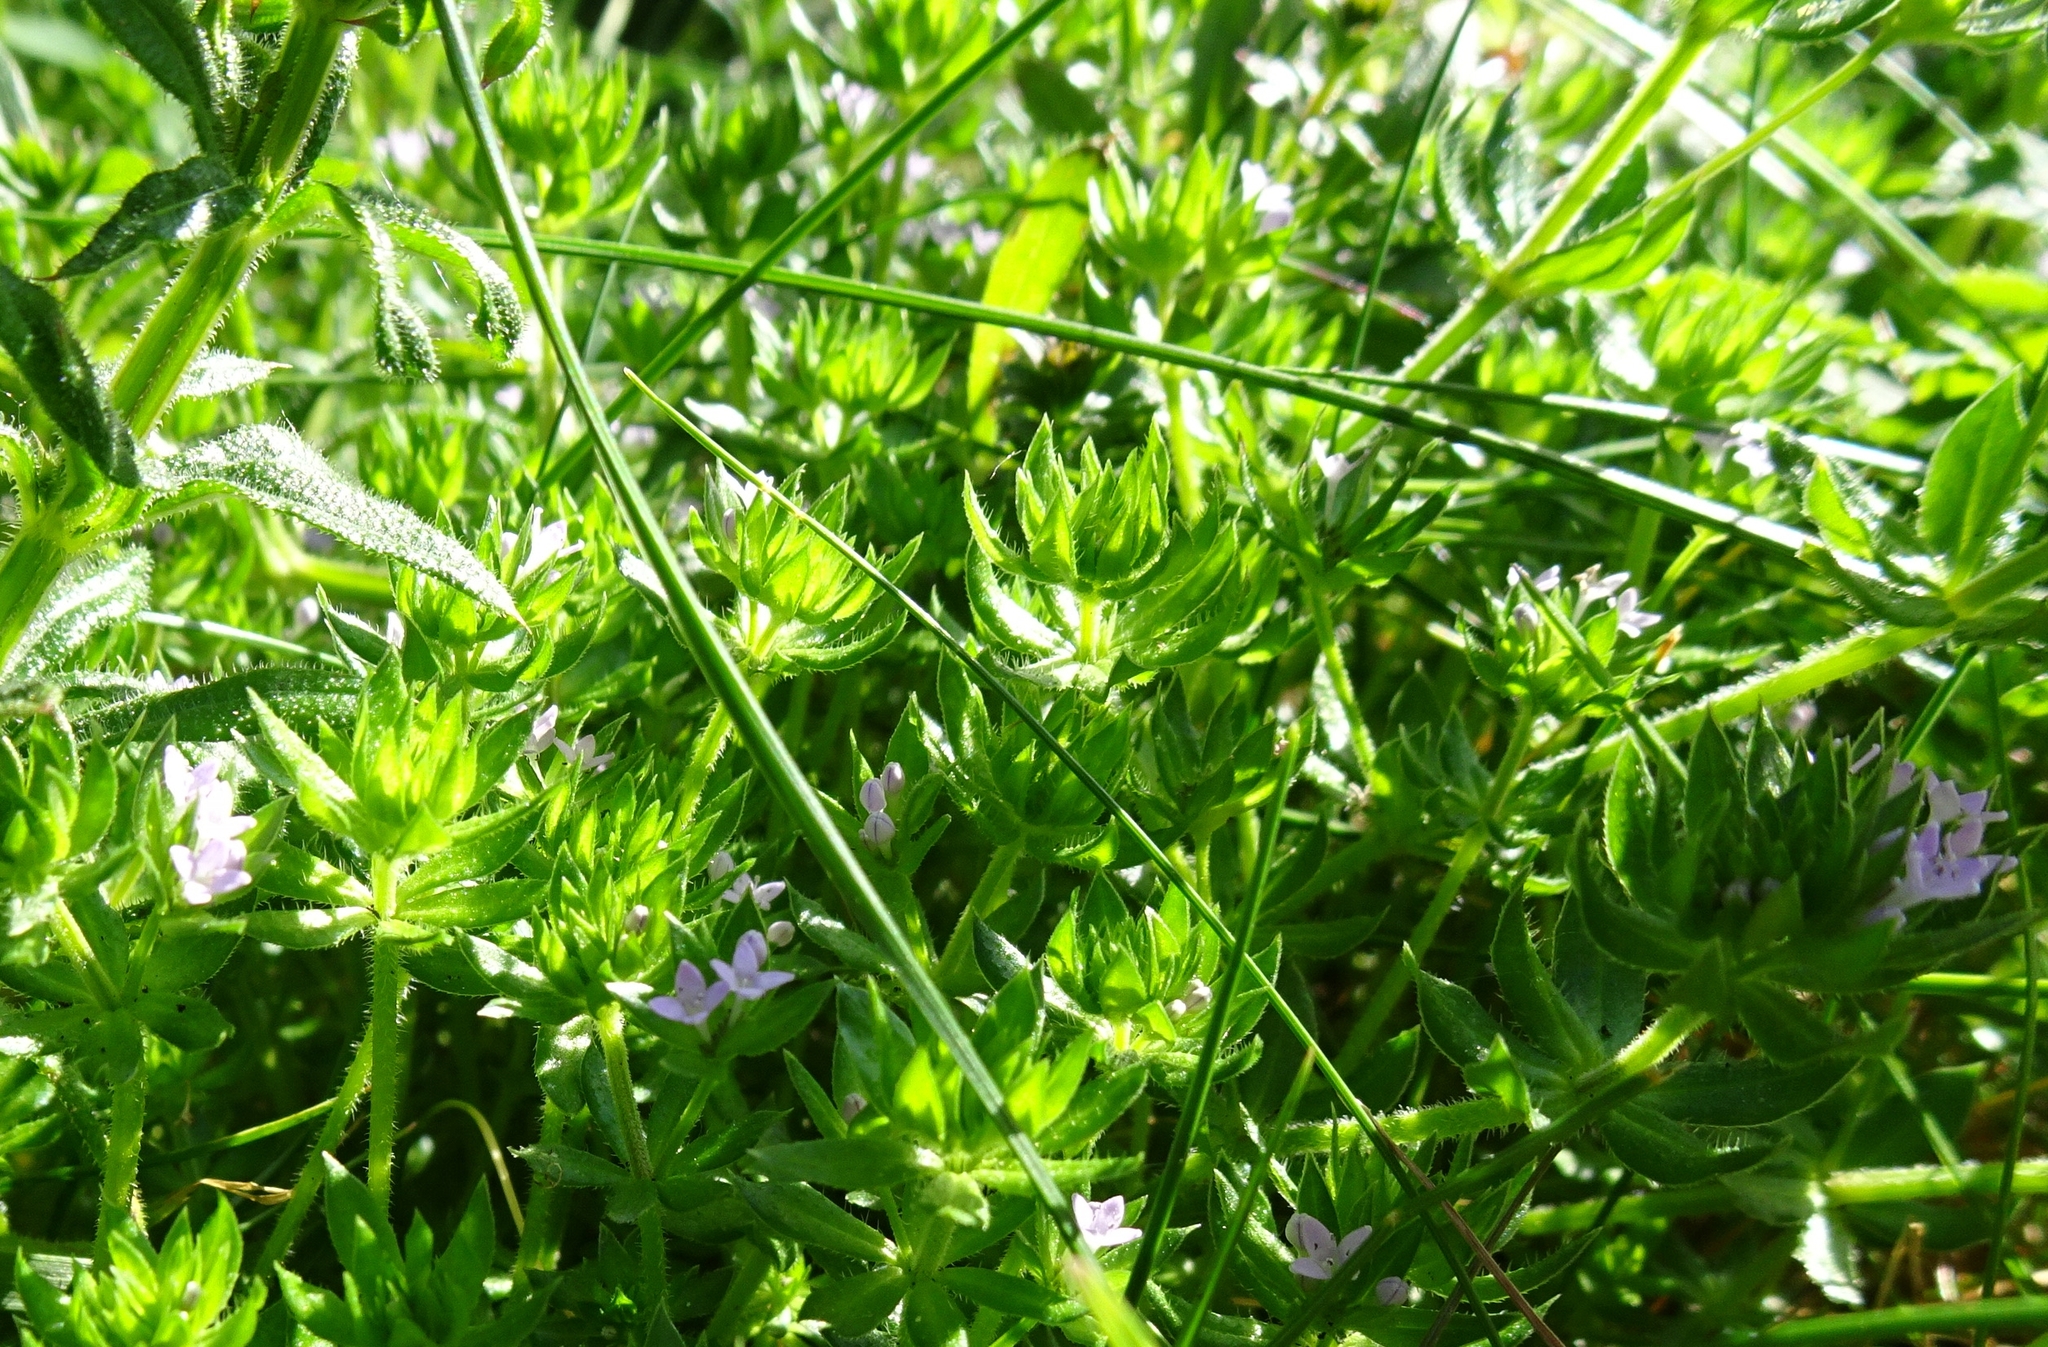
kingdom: Plantae
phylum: Tracheophyta
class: Magnoliopsida
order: Gentianales
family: Rubiaceae
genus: Sherardia
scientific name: Sherardia arvensis
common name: Field madder
